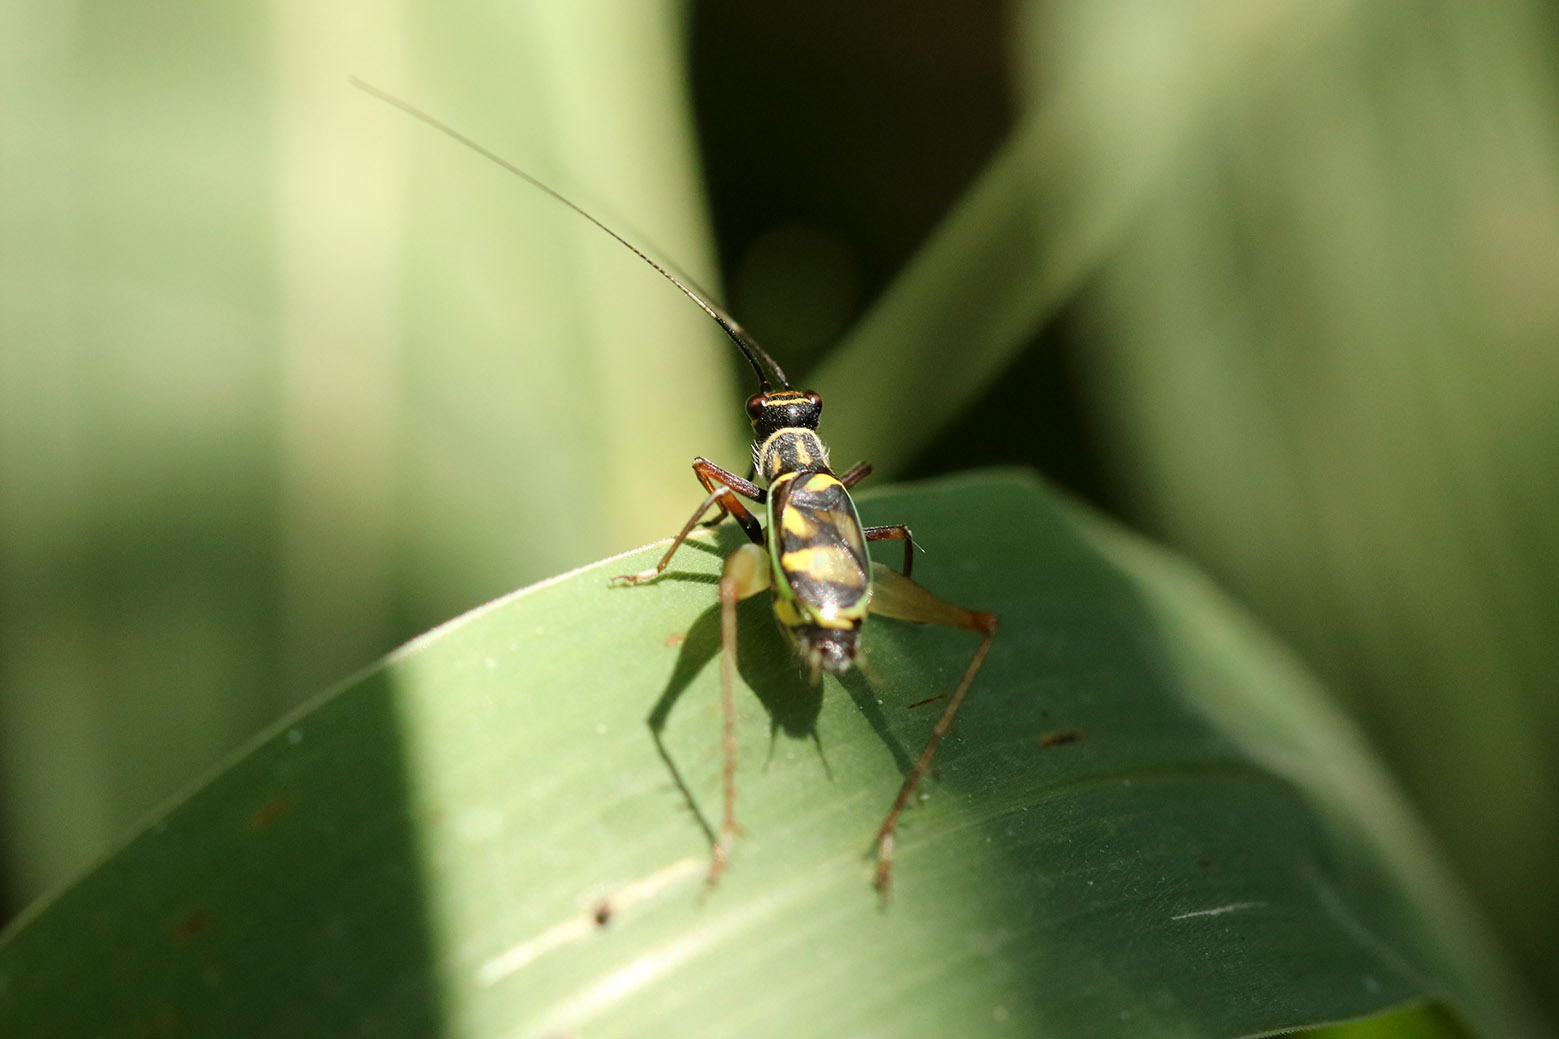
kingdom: Animalia
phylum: Arthropoda
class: Insecta
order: Orthoptera
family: Trigonidiidae
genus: Phylloscyrtus
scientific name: Phylloscyrtus amoenus
